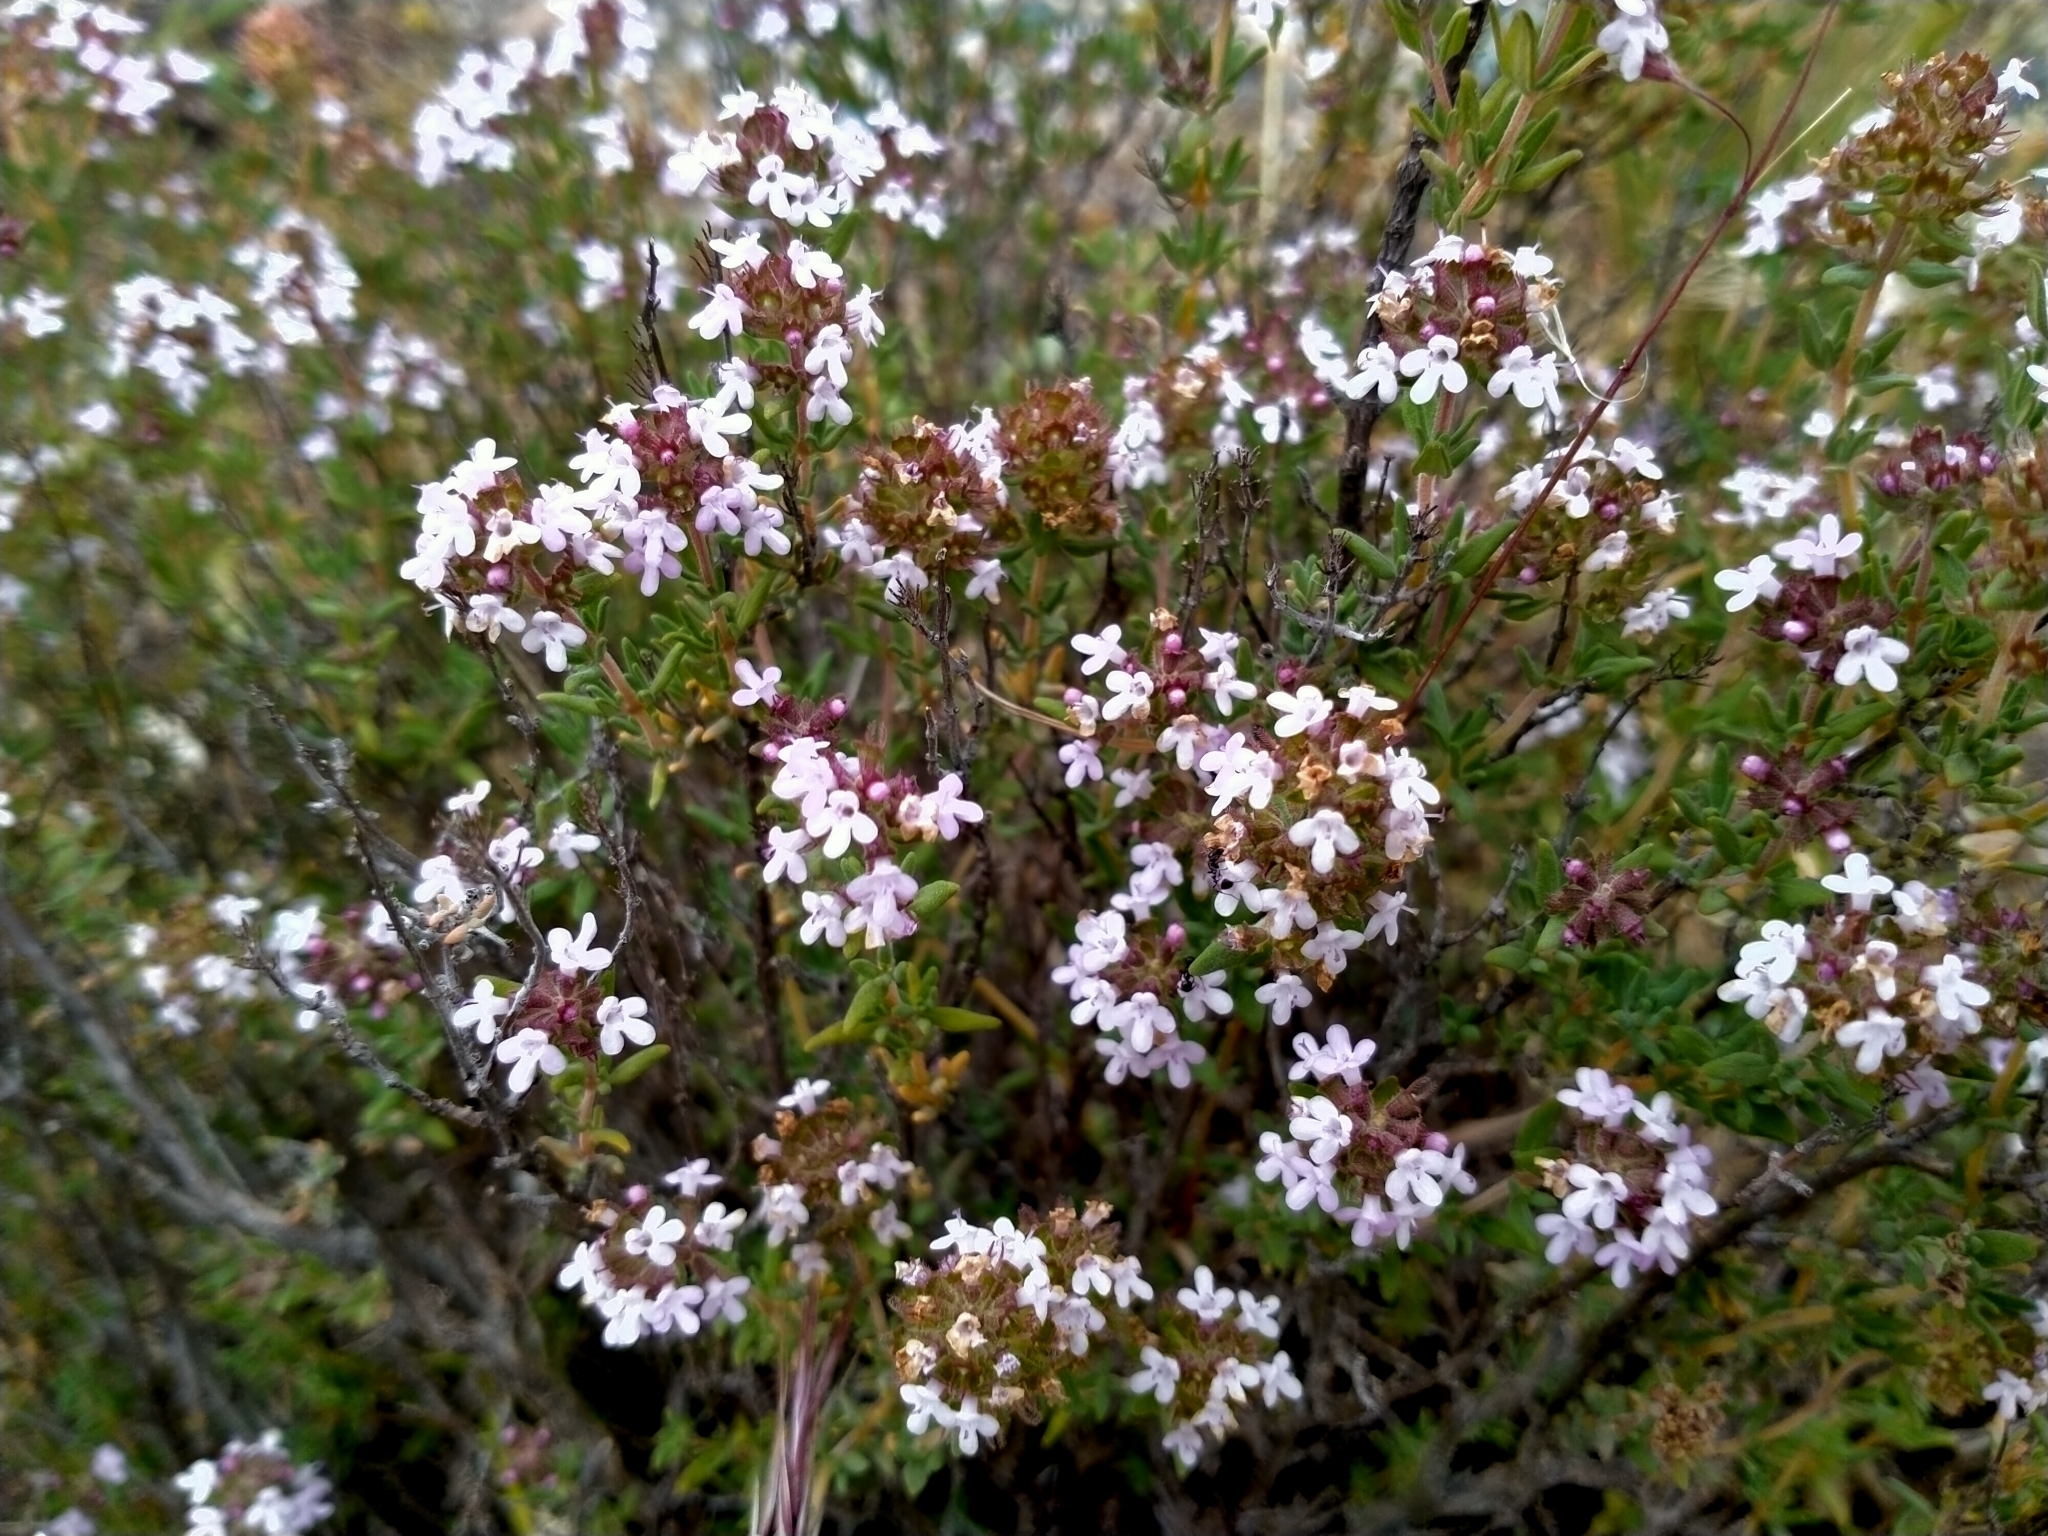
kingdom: Plantae
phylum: Tracheophyta
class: Magnoliopsida
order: Lamiales
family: Lamiaceae
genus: Thymus
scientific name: Thymus vulgaris
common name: Garden thyme
